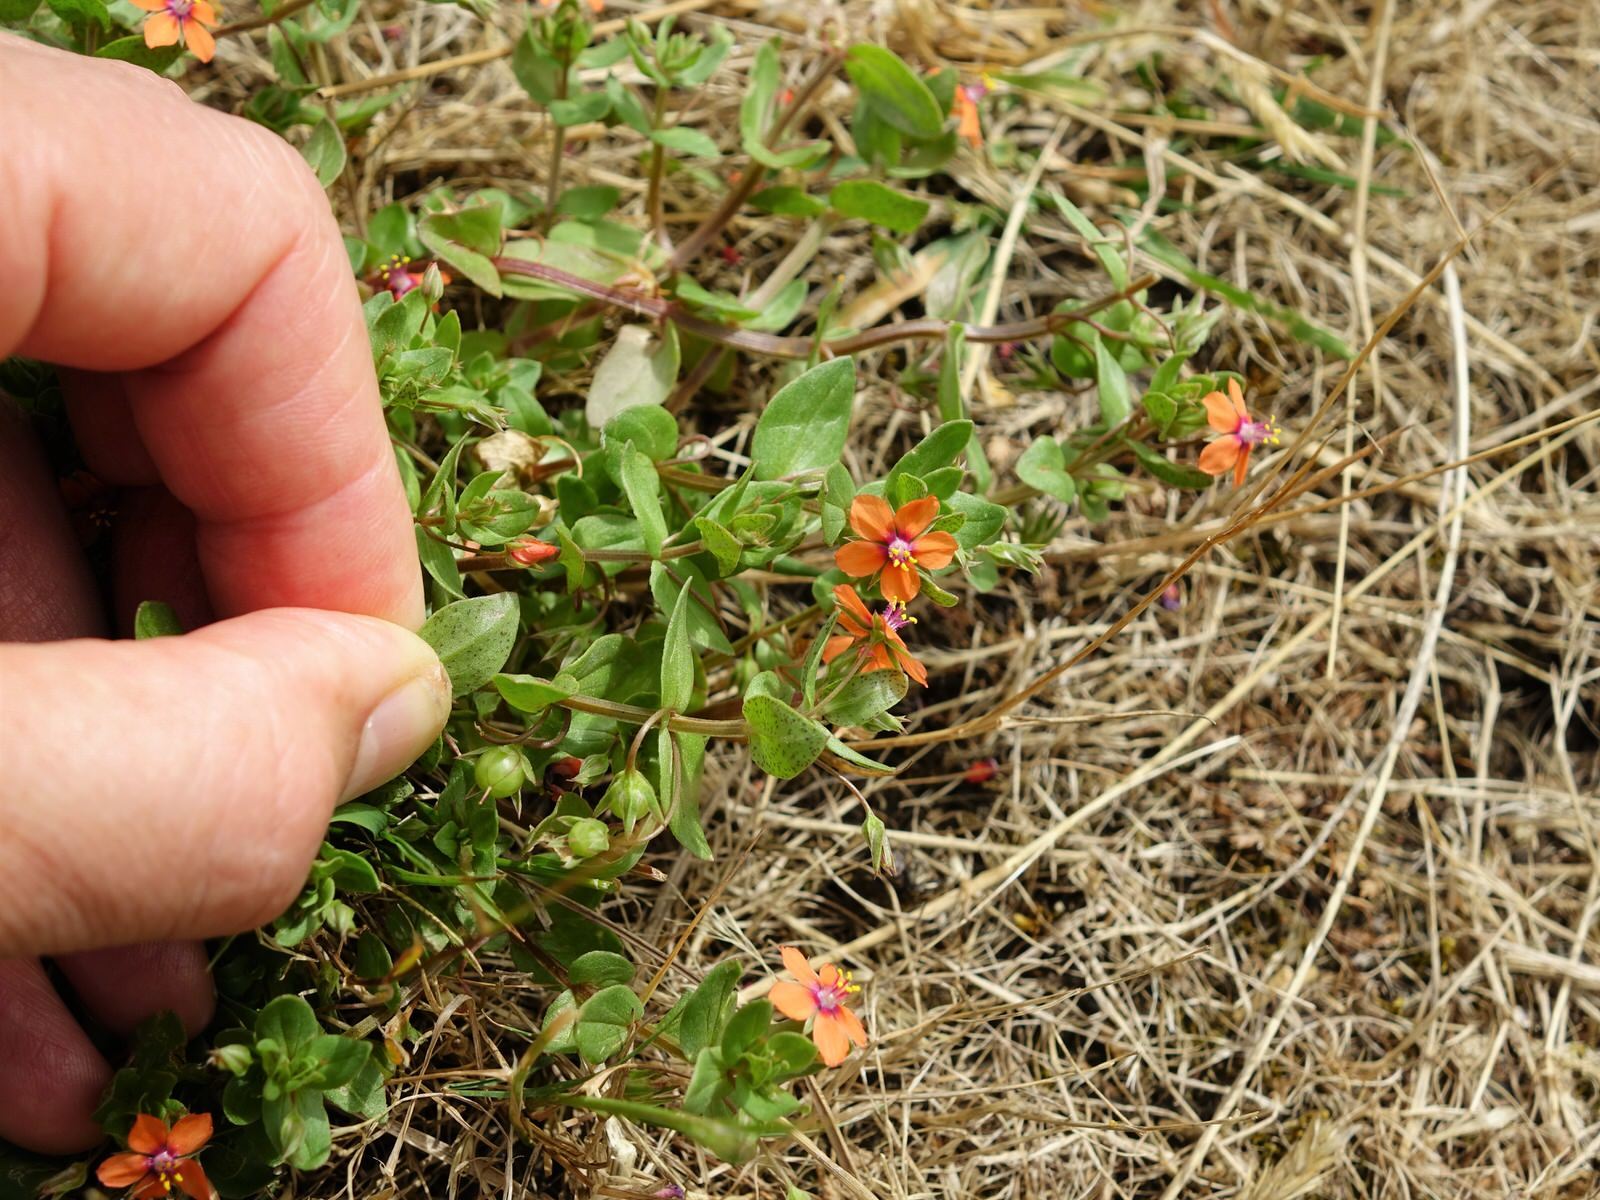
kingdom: Plantae
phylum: Tracheophyta
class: Magnoliopsida
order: Ericales
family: Primulaceae
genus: Lysimachia
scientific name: Lysimachia arvensis
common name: Scarlet pimpernel
